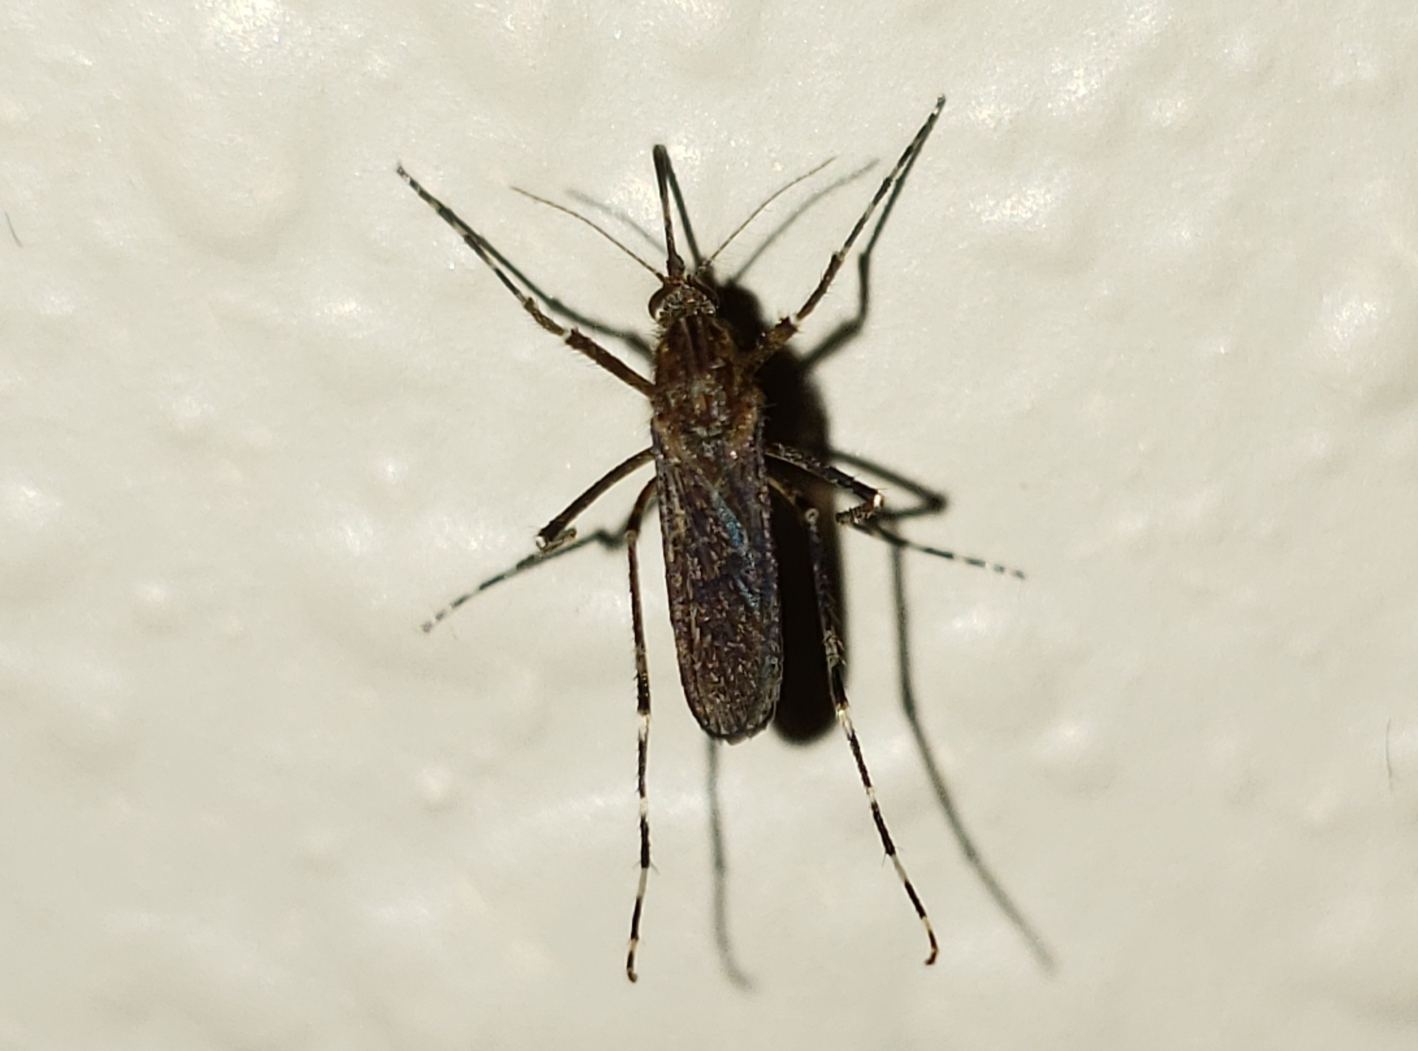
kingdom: Animalia
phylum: Arthropoda
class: Insecta
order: Diptera
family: Culicidae
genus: Coquillettidia
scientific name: Coquillettidia perturbans
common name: Cattail mosquito
